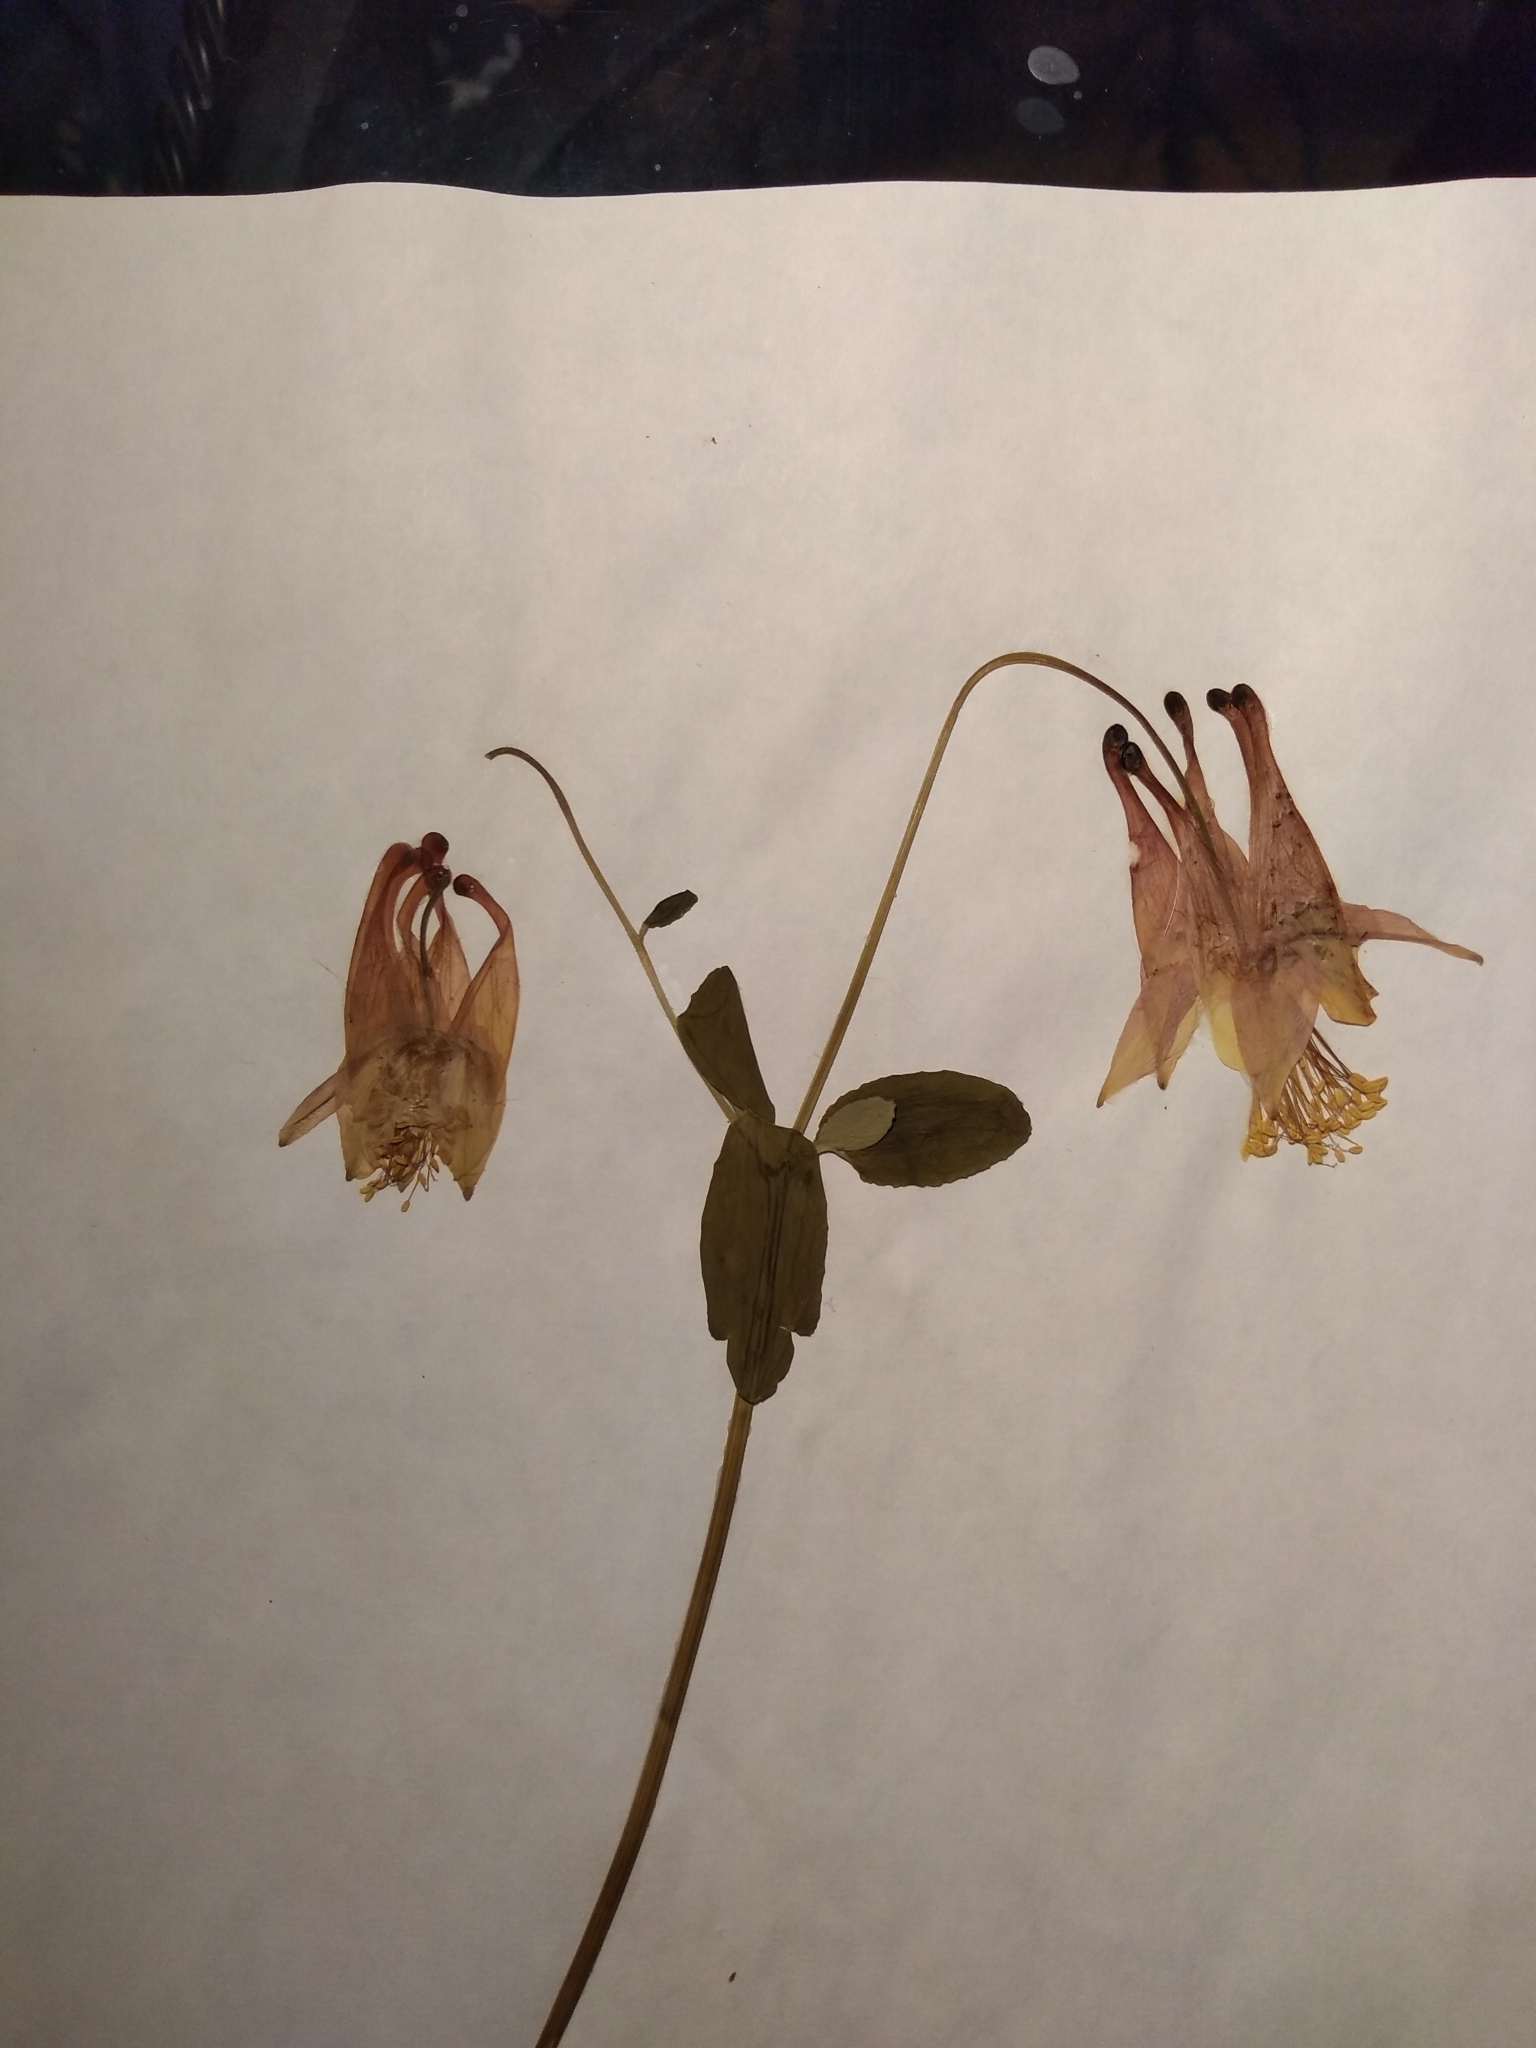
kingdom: Plantae
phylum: Tracheophyta
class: Magnoliopsida
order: Ranunculales
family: Ranunculaceae
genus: Aquilegia
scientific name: Aquilegia canadensis
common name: American columbine
